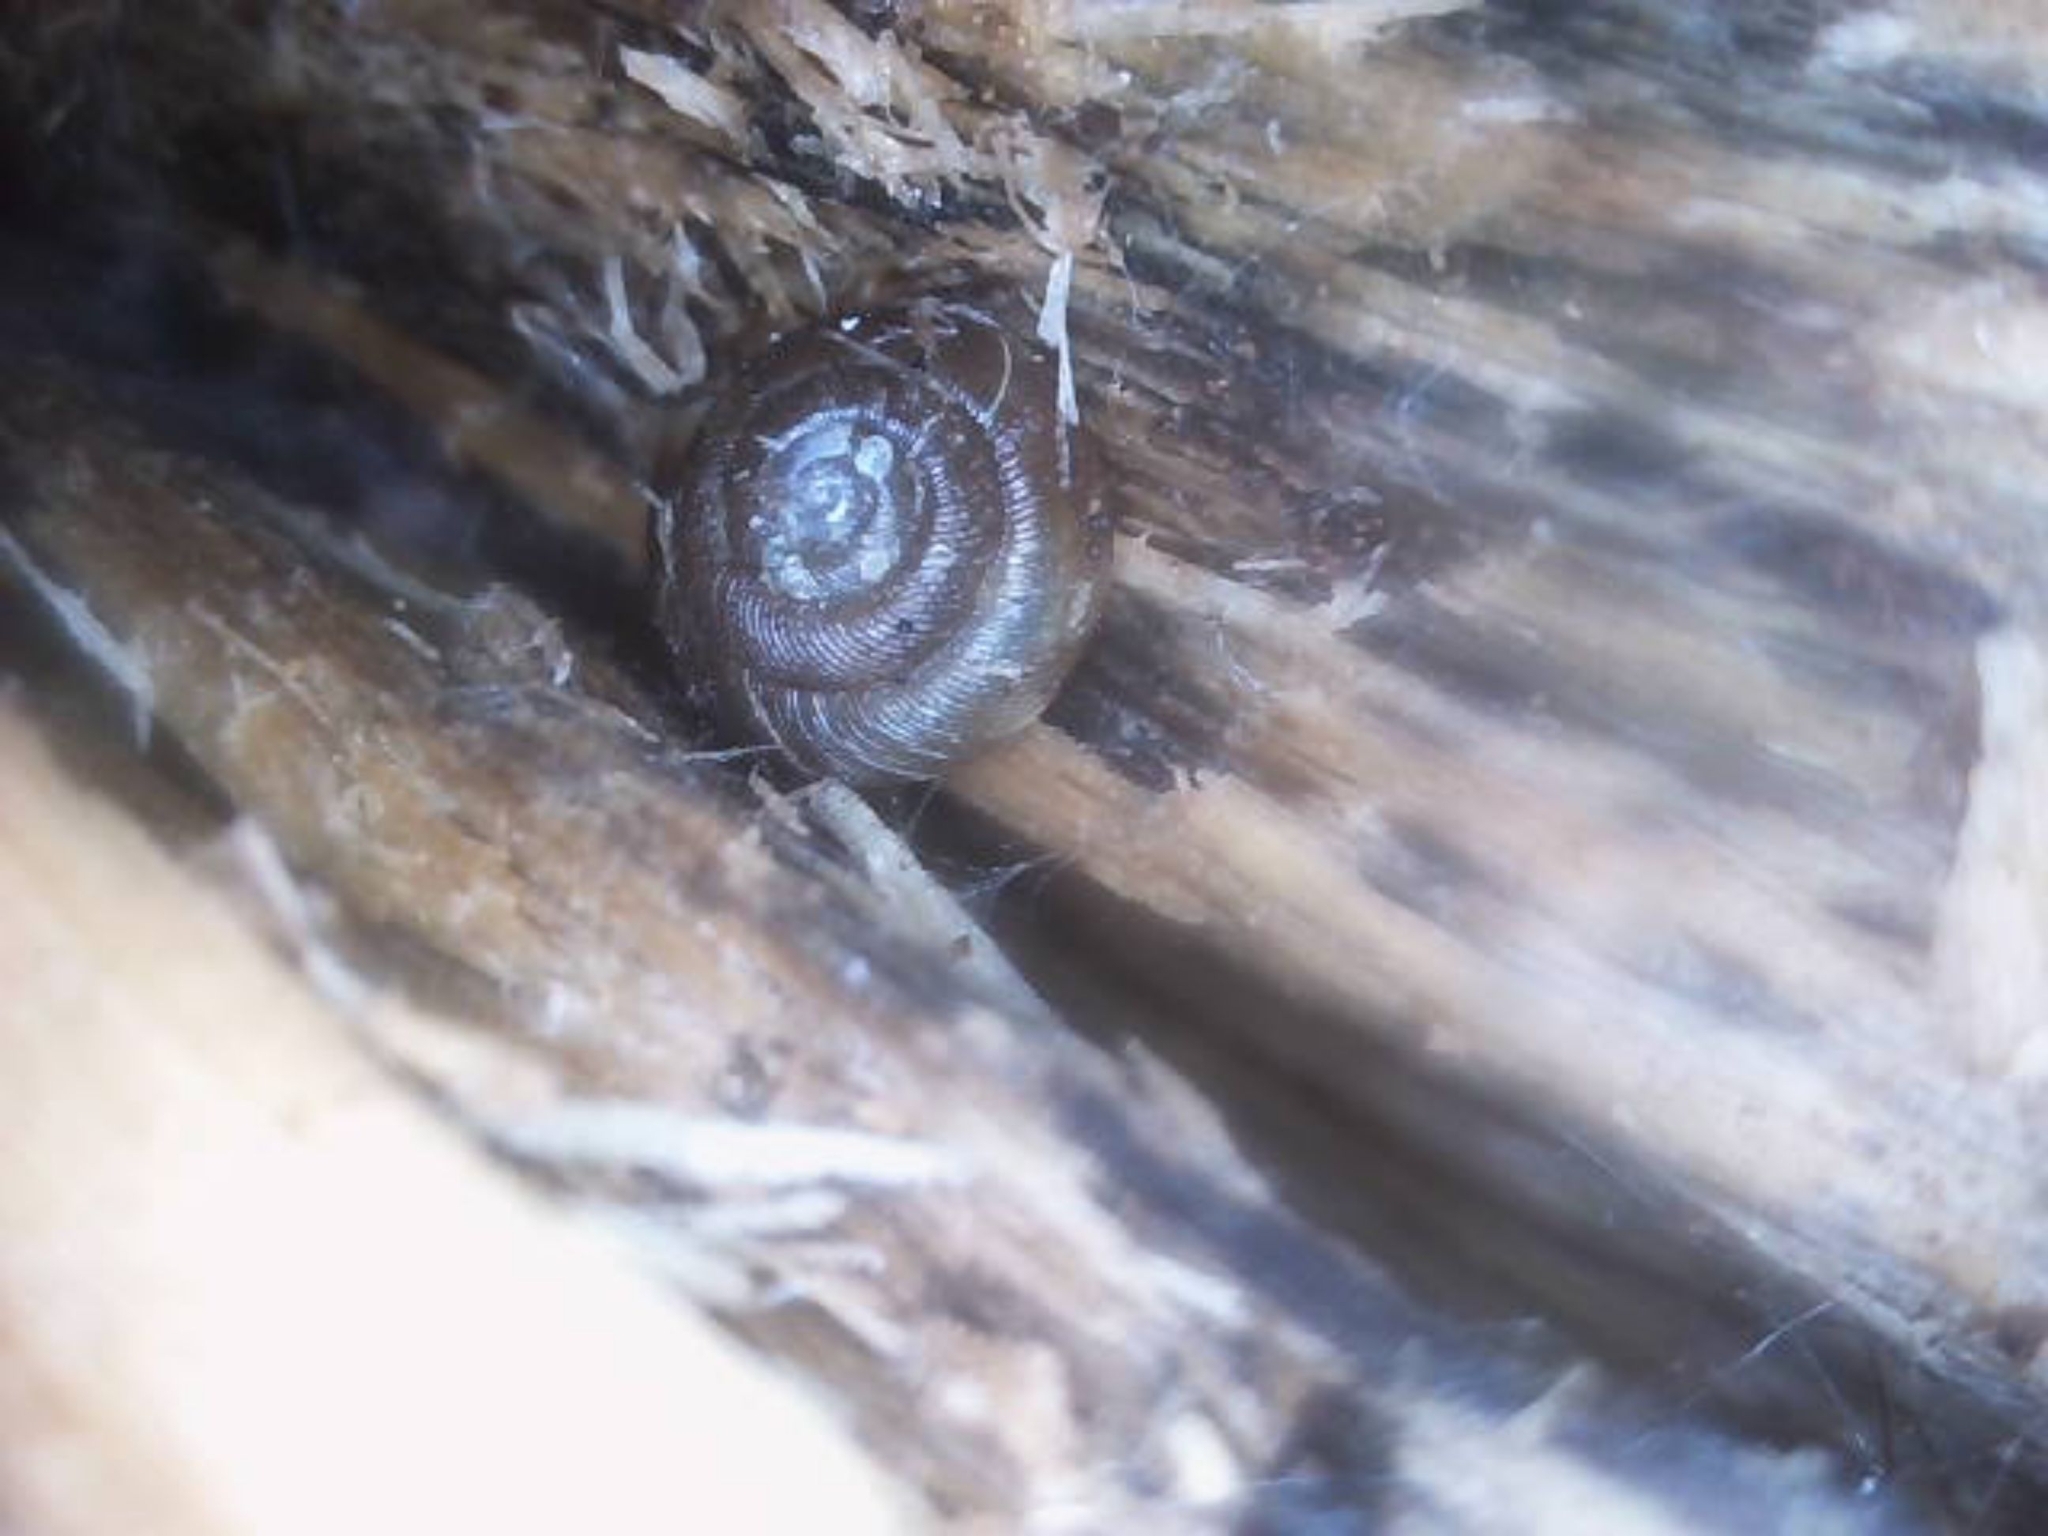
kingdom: Animalia
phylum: Mollusca
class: Gastropoda
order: Stylommatophora
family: Discidae
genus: Discus
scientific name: Discus ruderatus
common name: Brown disc snail
